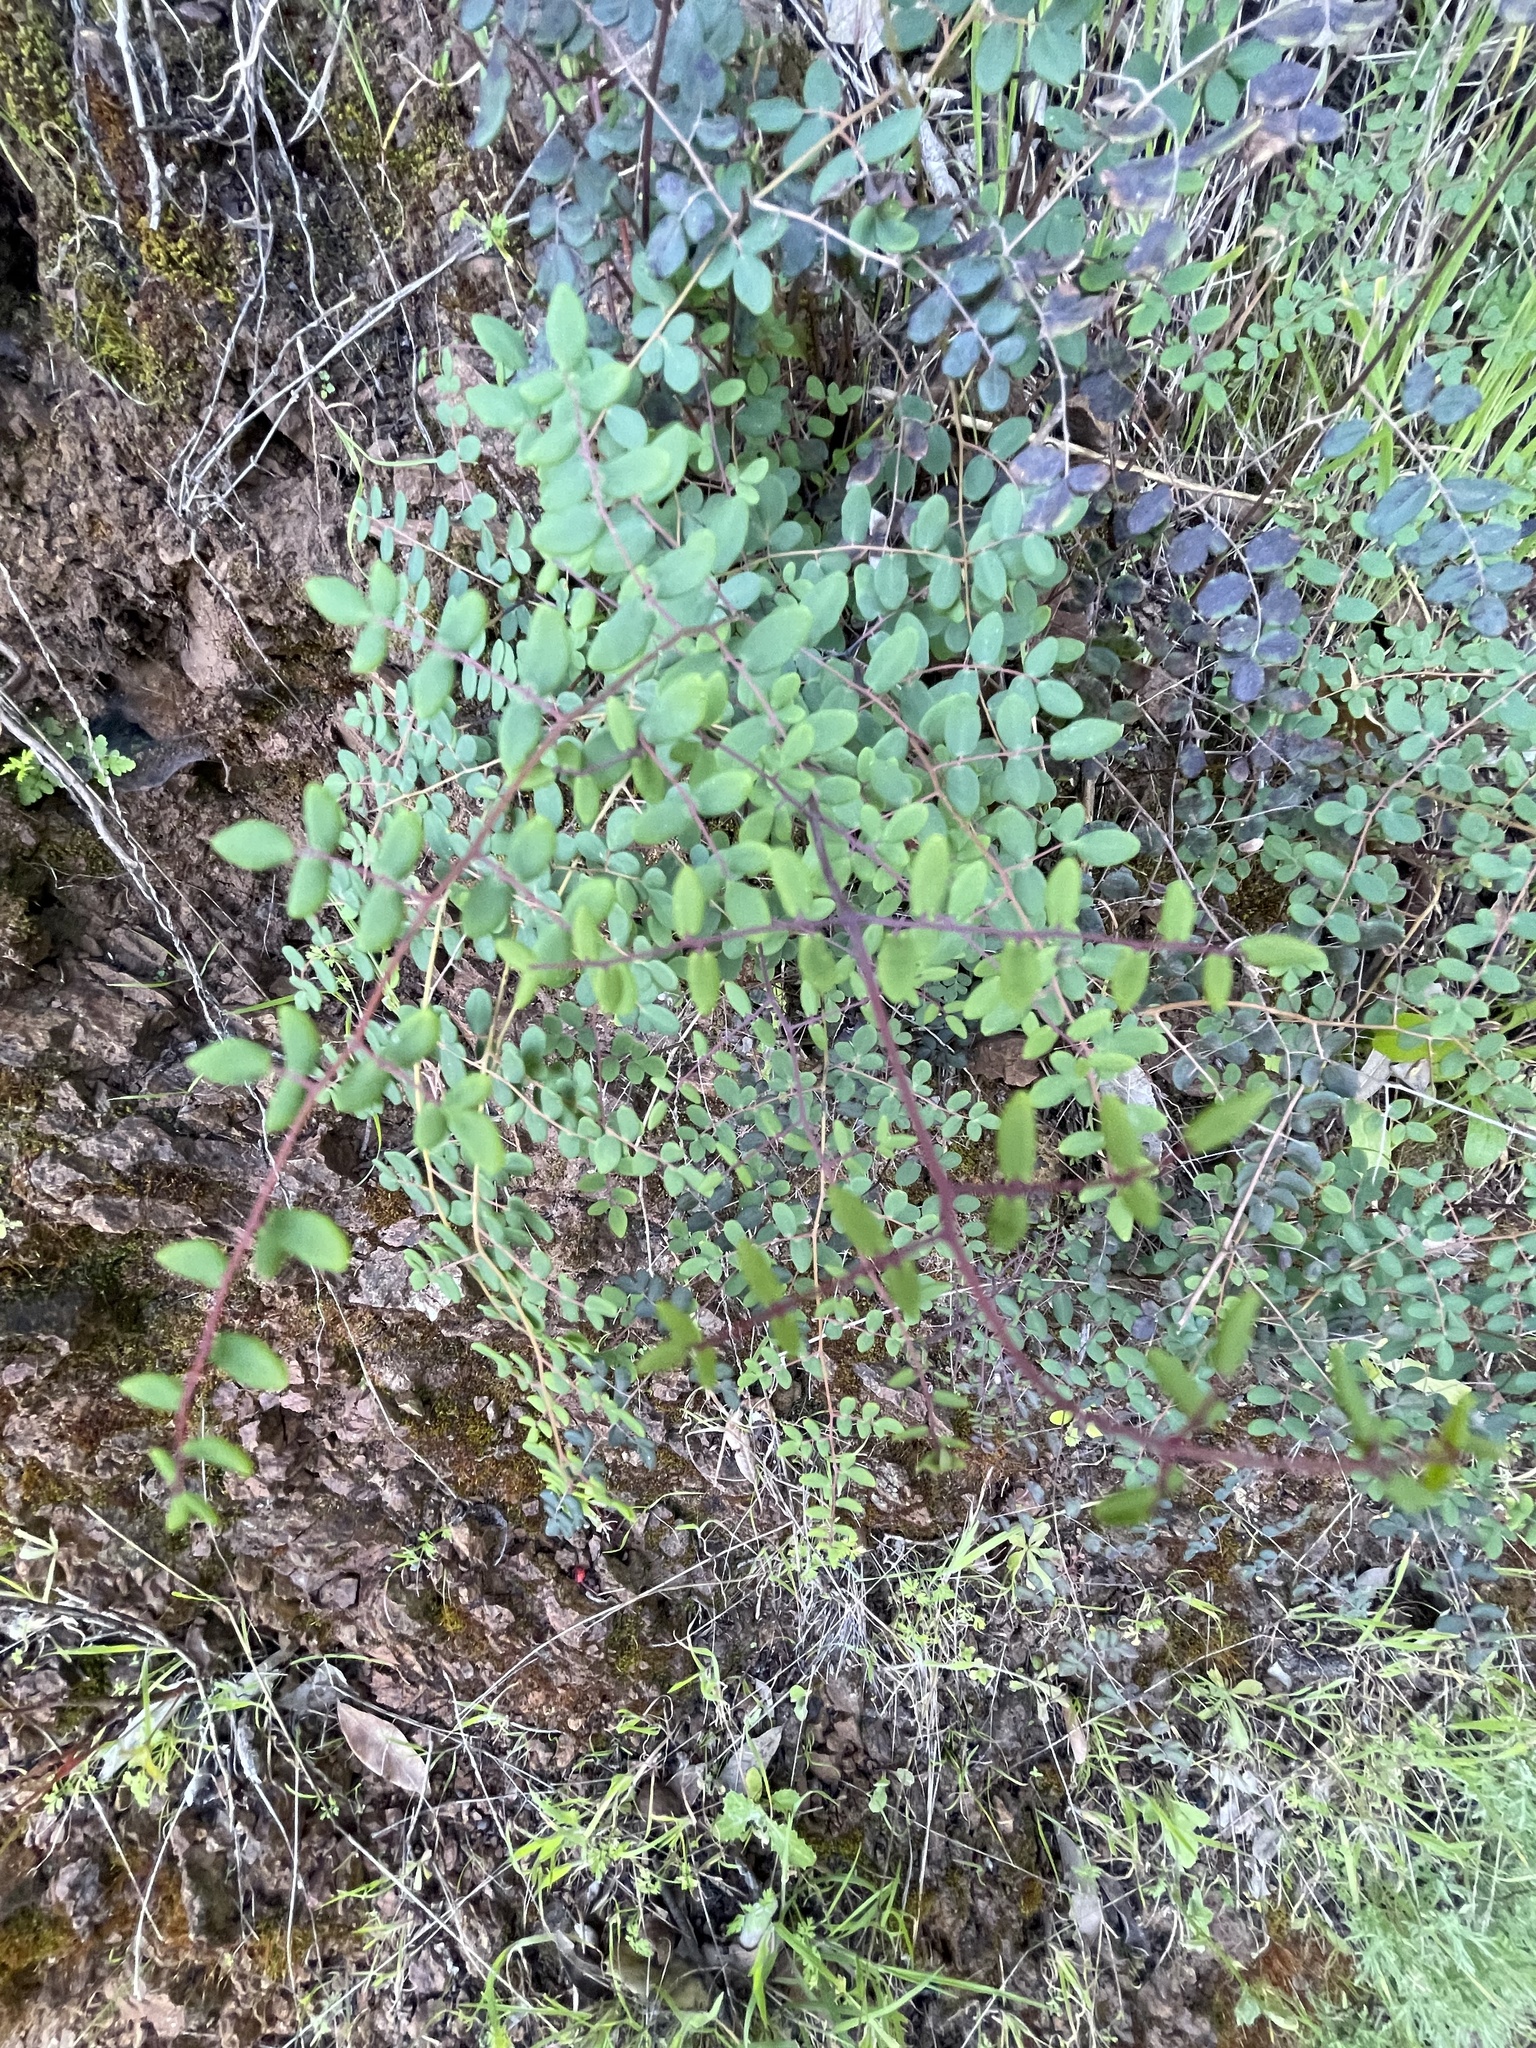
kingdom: Plantae
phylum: Tracheophyta
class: Polypodiopsida
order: Polypodiales
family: Pteridaceae
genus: Pellaea
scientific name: Pellaea andromedifolia
